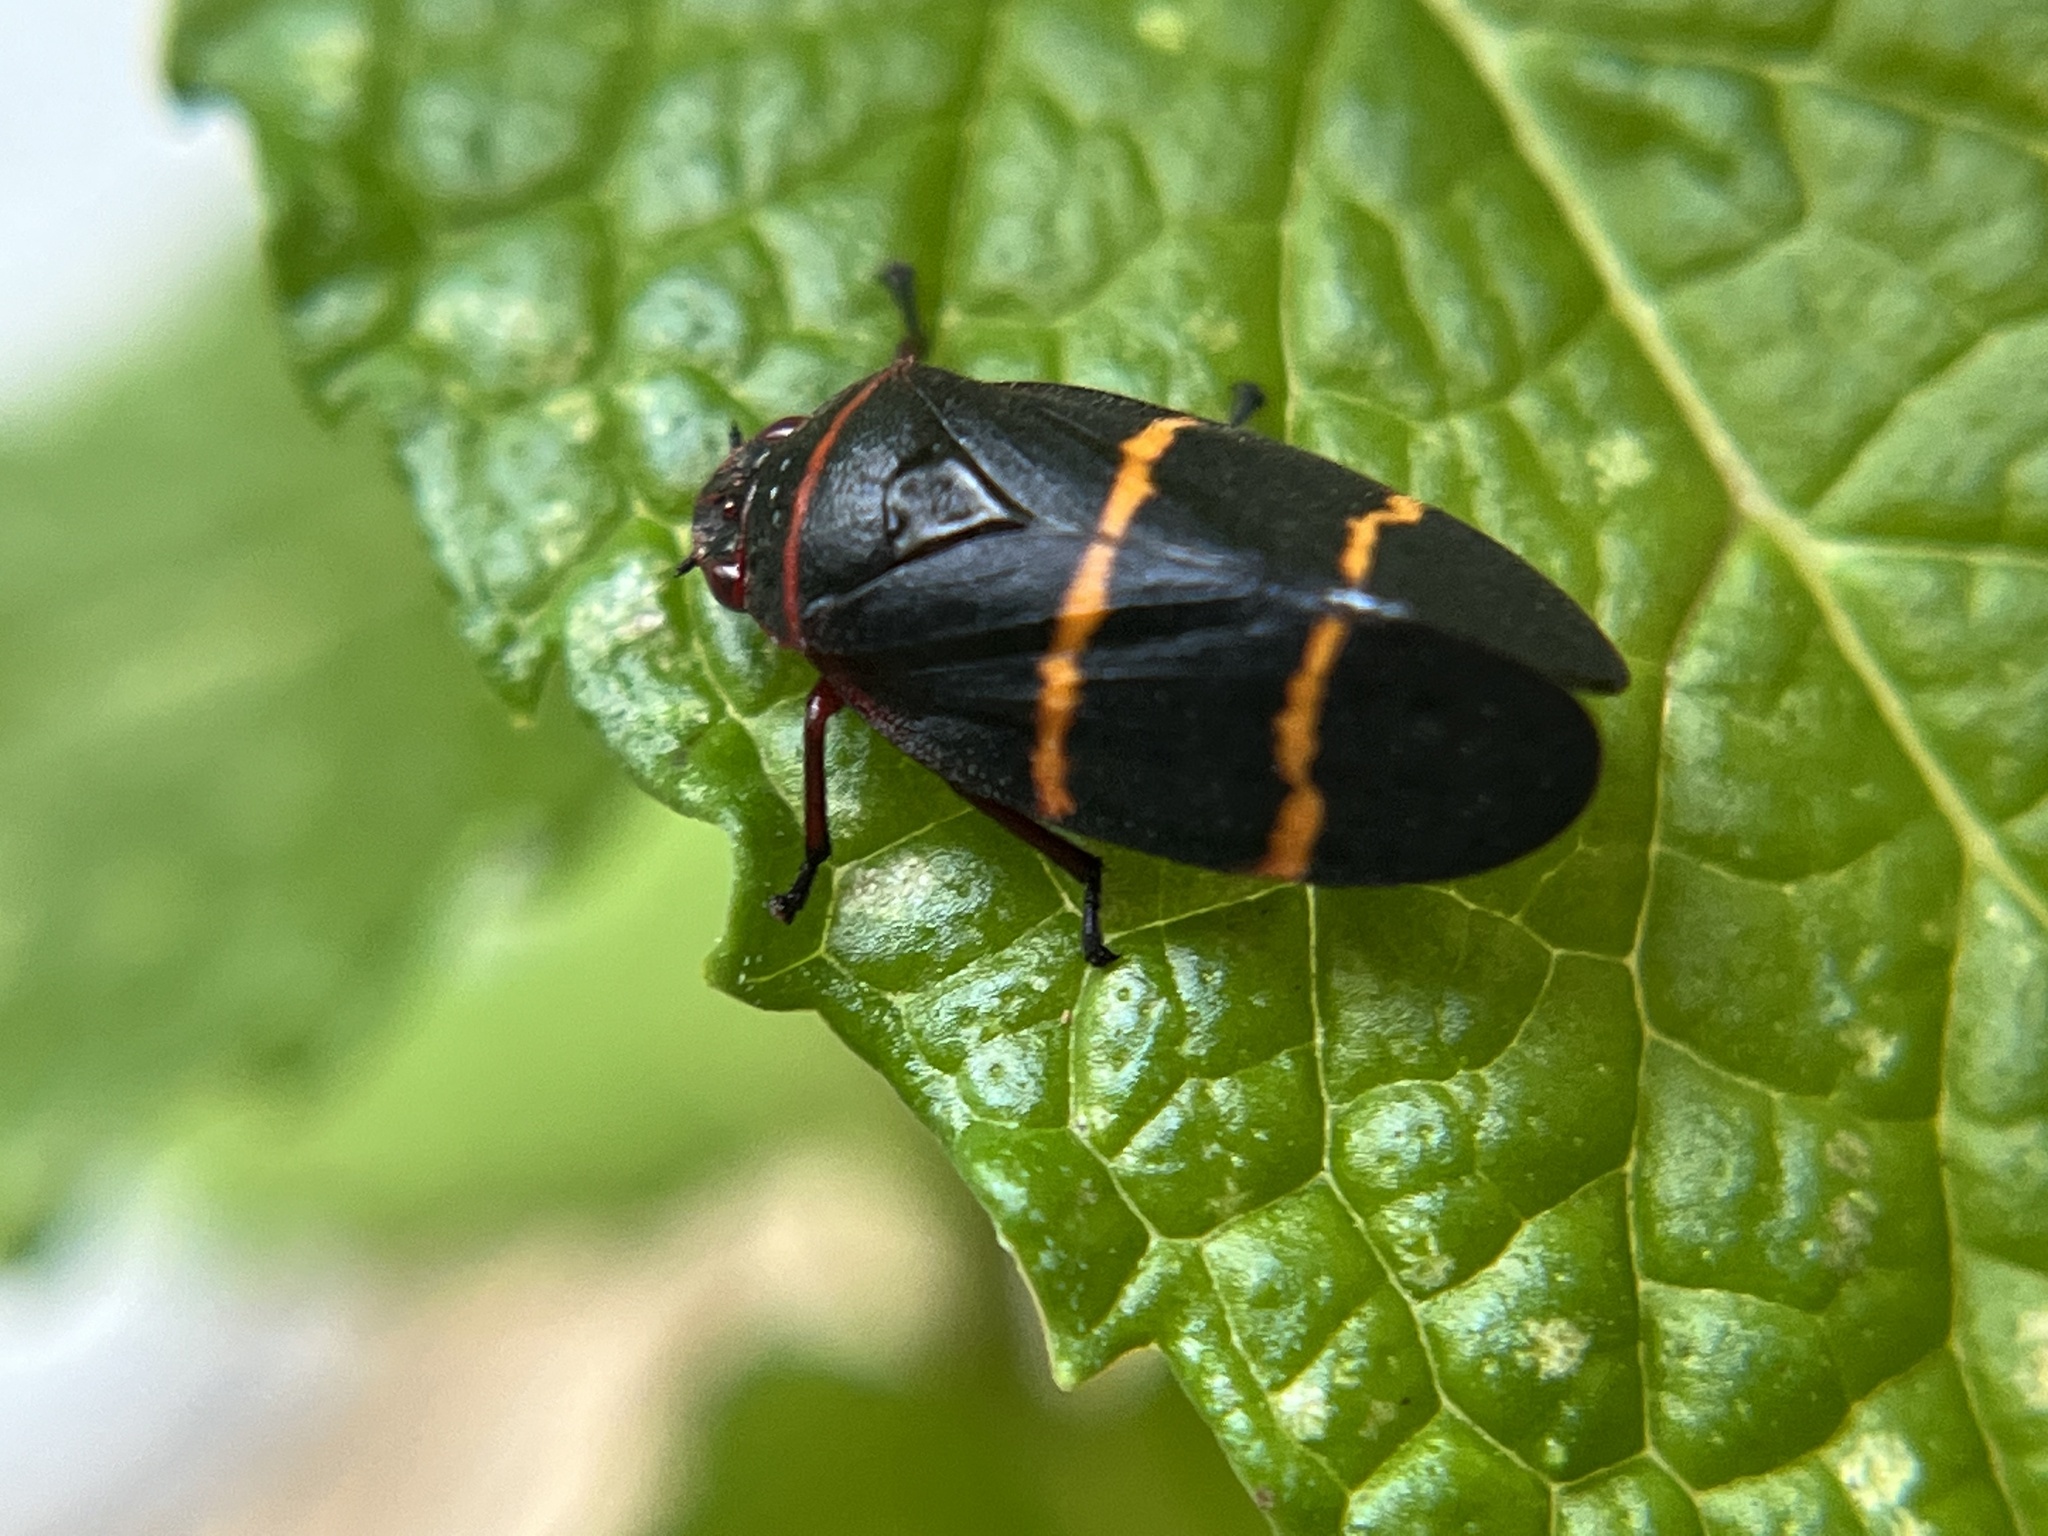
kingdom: Animalia
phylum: Arthropoda
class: Insecta
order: Hemiptera
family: Cercopidae
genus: Prosapia
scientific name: Prosapia bicincta
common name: Twolined spittlebug
